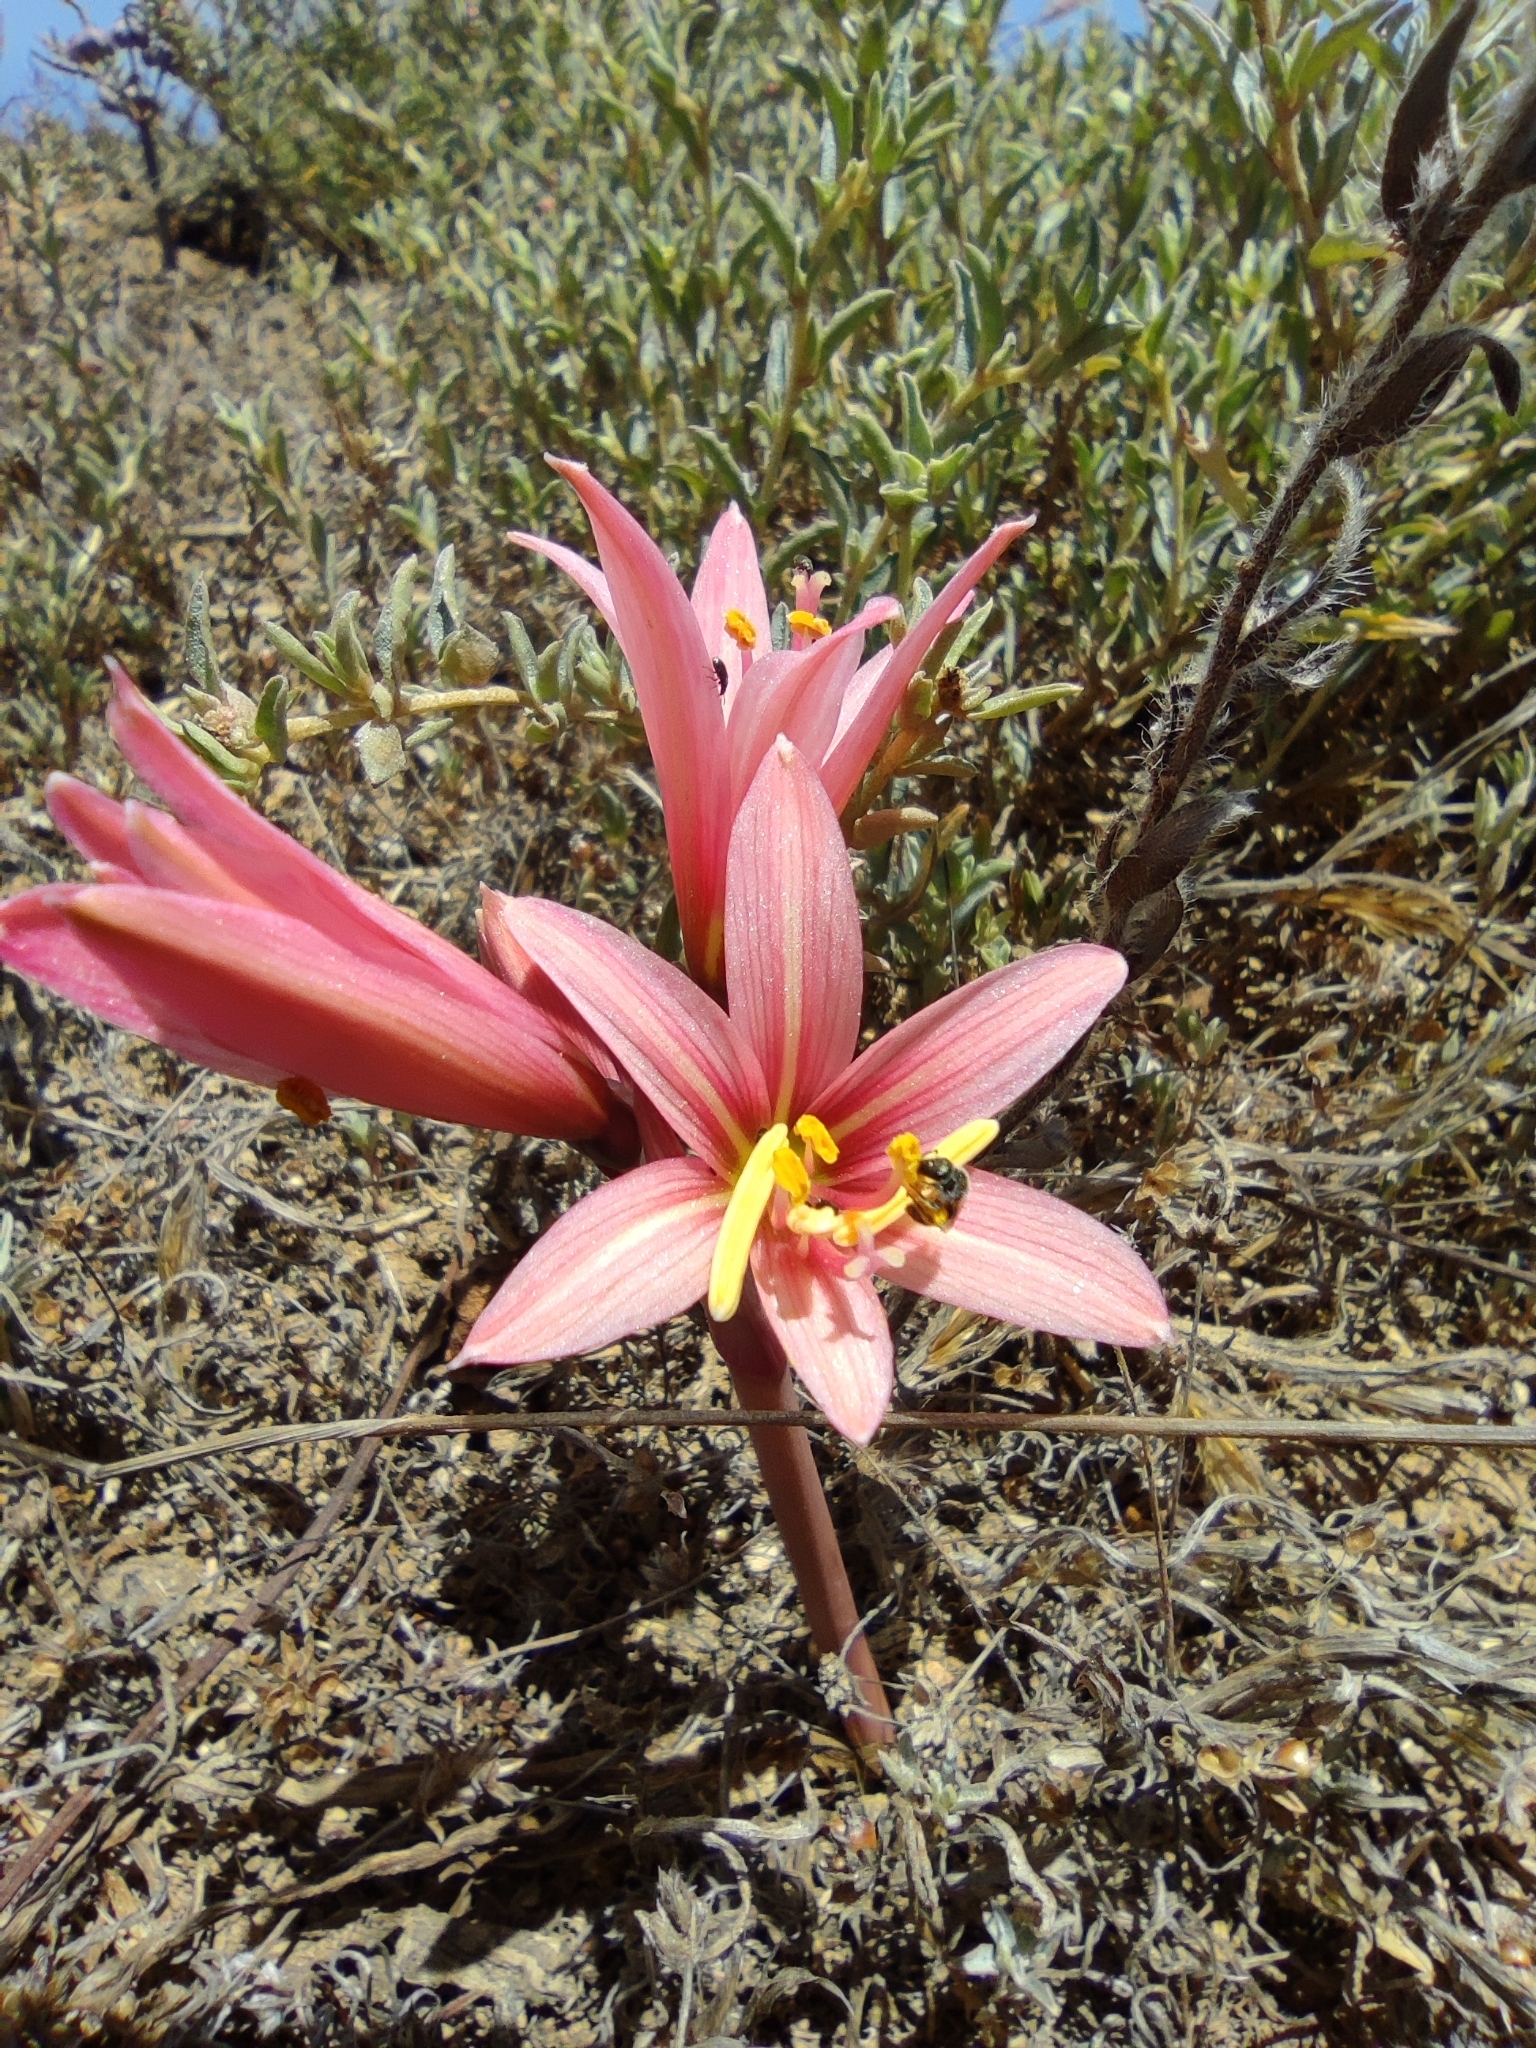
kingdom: Plantae
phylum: Tracheophyta
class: Liliopsida
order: Asparagales
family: Amaryllidaceae
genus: Zephyranthes
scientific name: Zephyranthes advena
